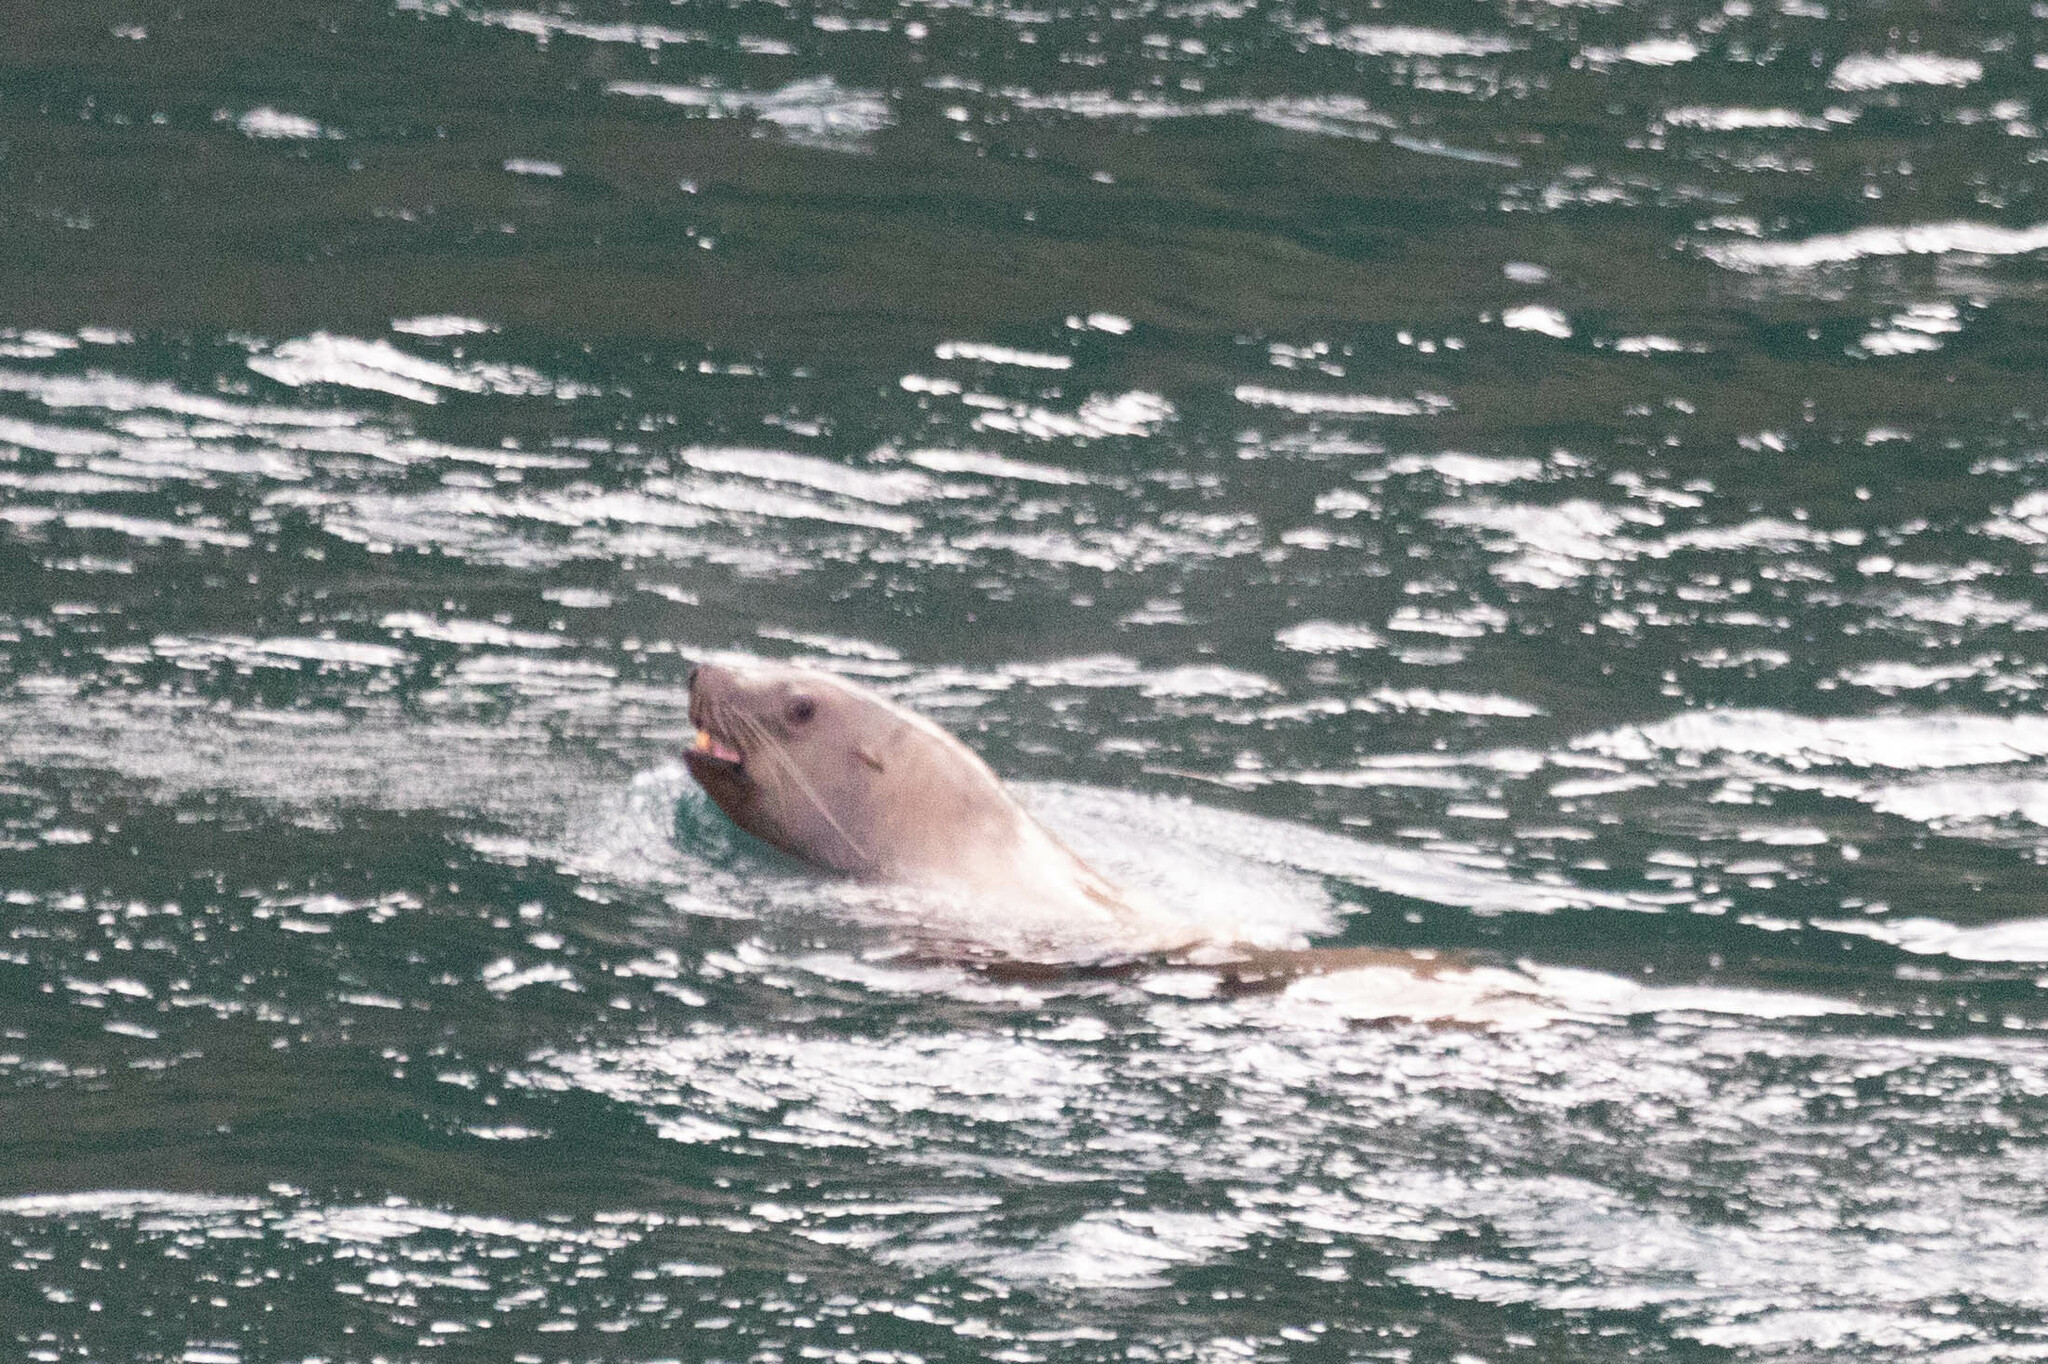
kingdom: Animalia
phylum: Chordata
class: Mammalia
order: Carnivora
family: Otariidae
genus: Eumetopias
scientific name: Eumetopias jubatus
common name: Steller sea lion
